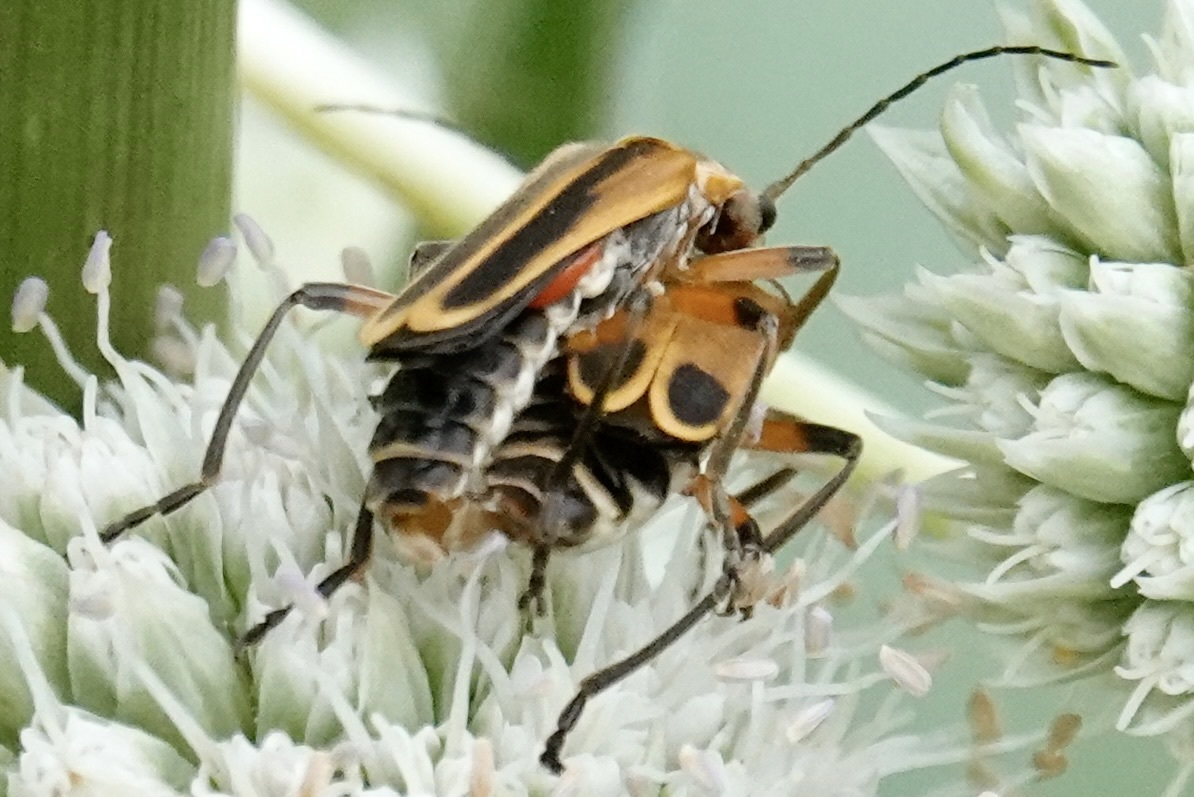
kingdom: Animalia
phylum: Arthropoda
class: Insecta
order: Coleoptera
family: Cantharidae
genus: Chauliognathus
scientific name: Chauliognathus marginatus
